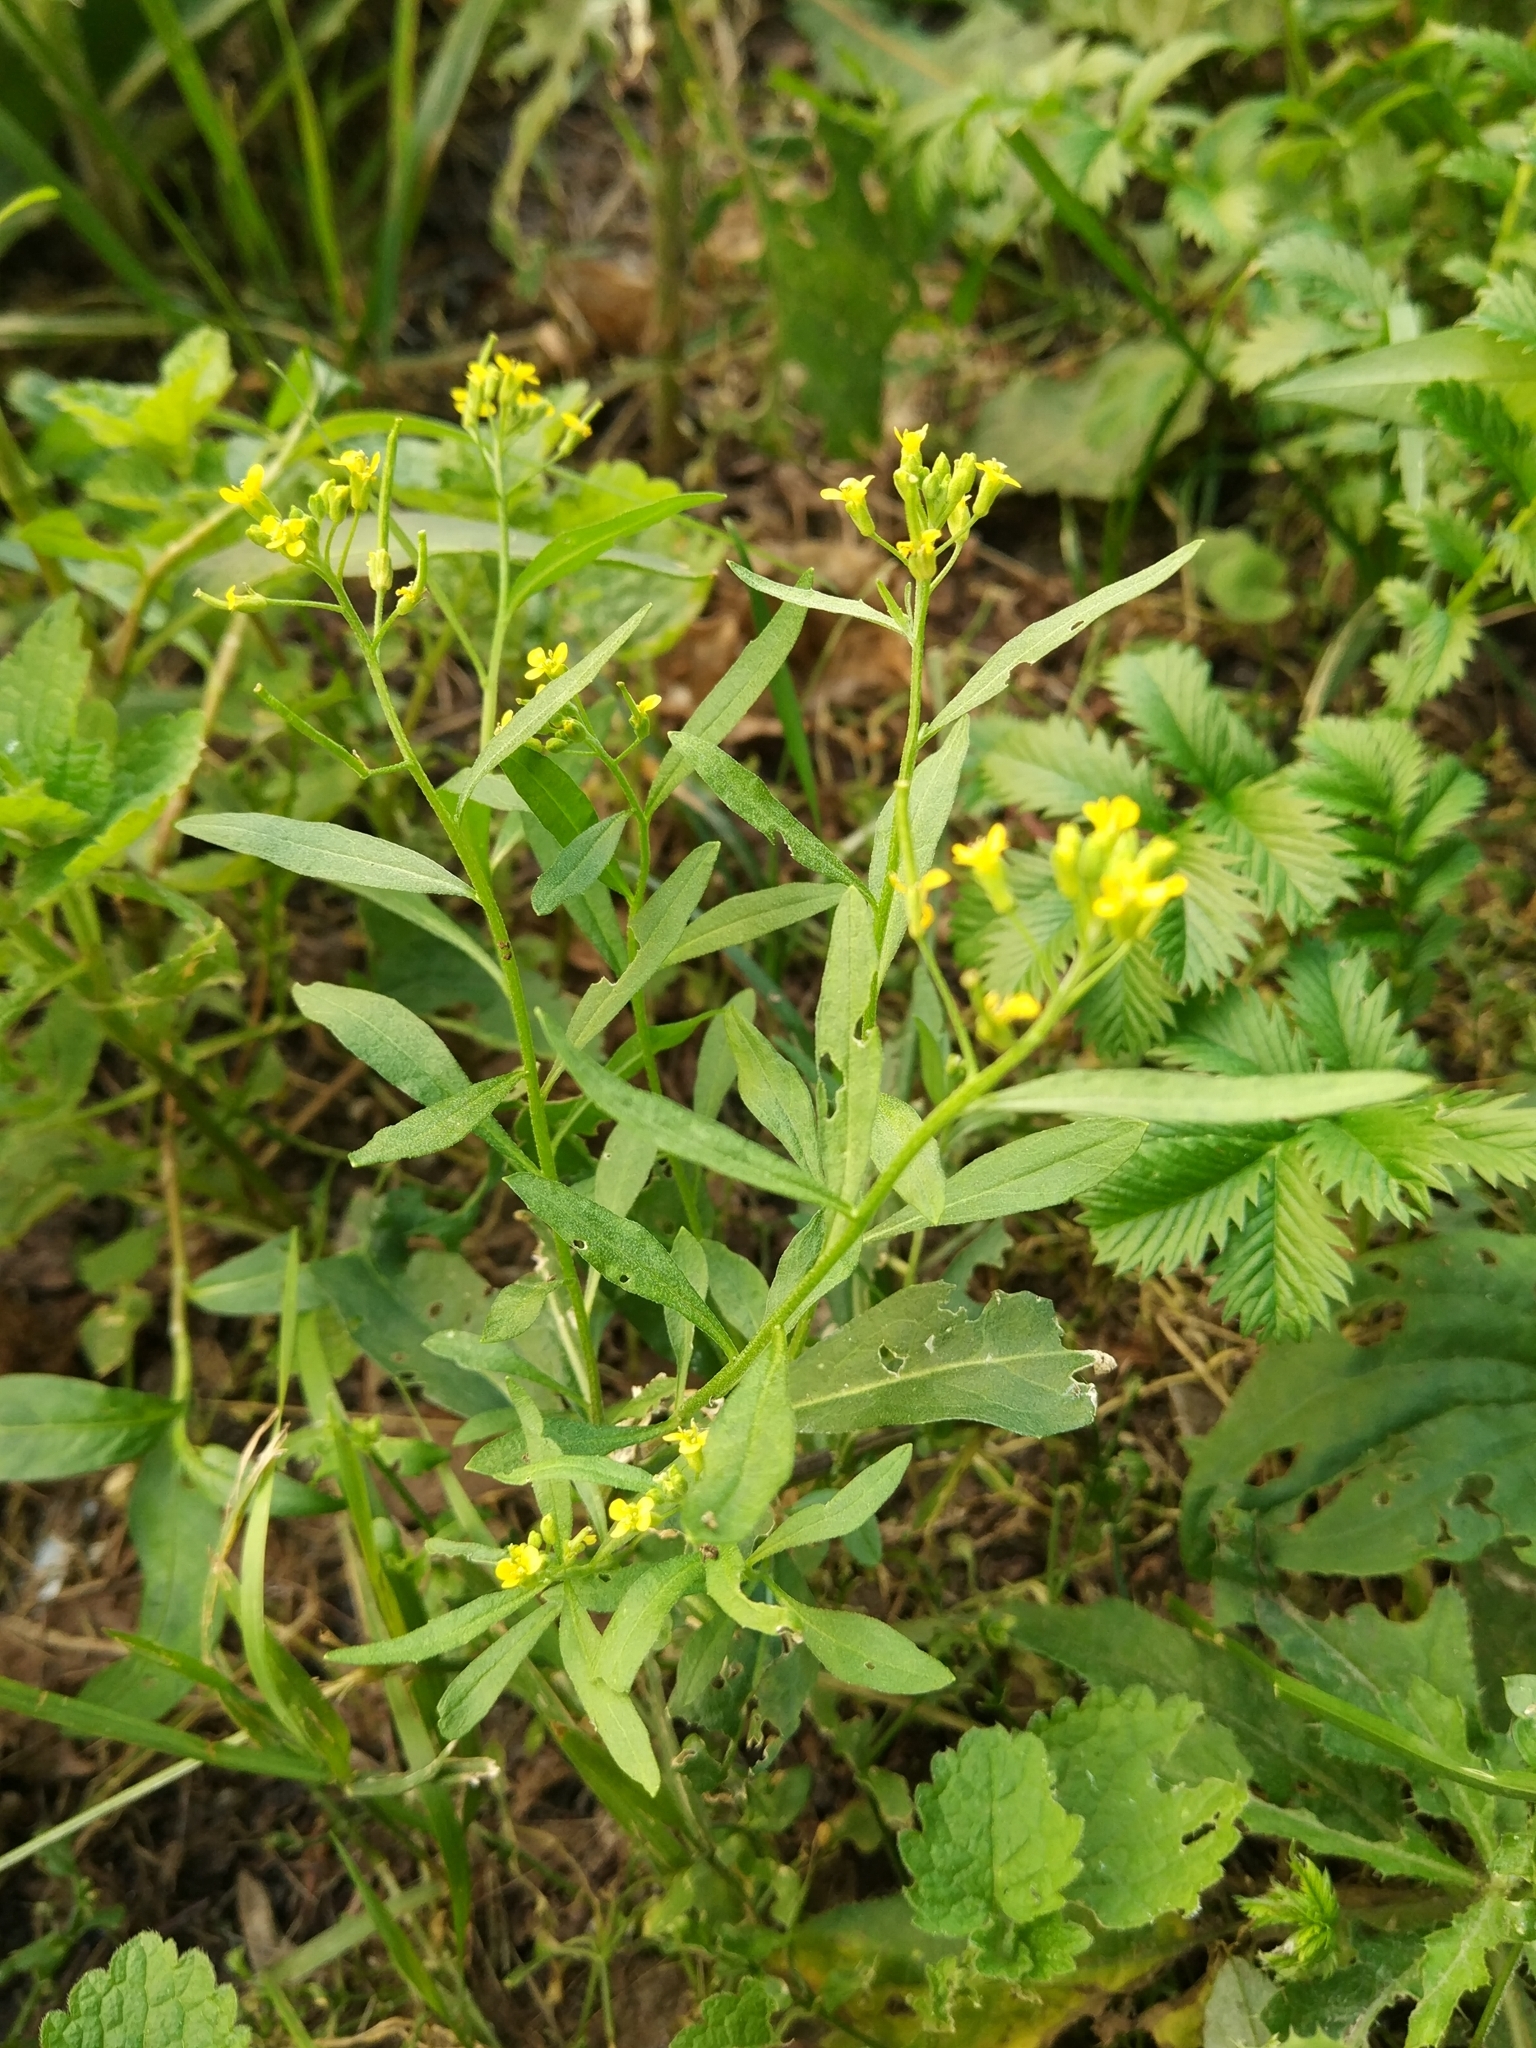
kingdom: Plantae
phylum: Tracheophyta
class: Magnoliopsida
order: Brassicales
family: Brassicaceae
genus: Erysimum
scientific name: Erysimum cheiranthoides
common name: Treacle mustard
